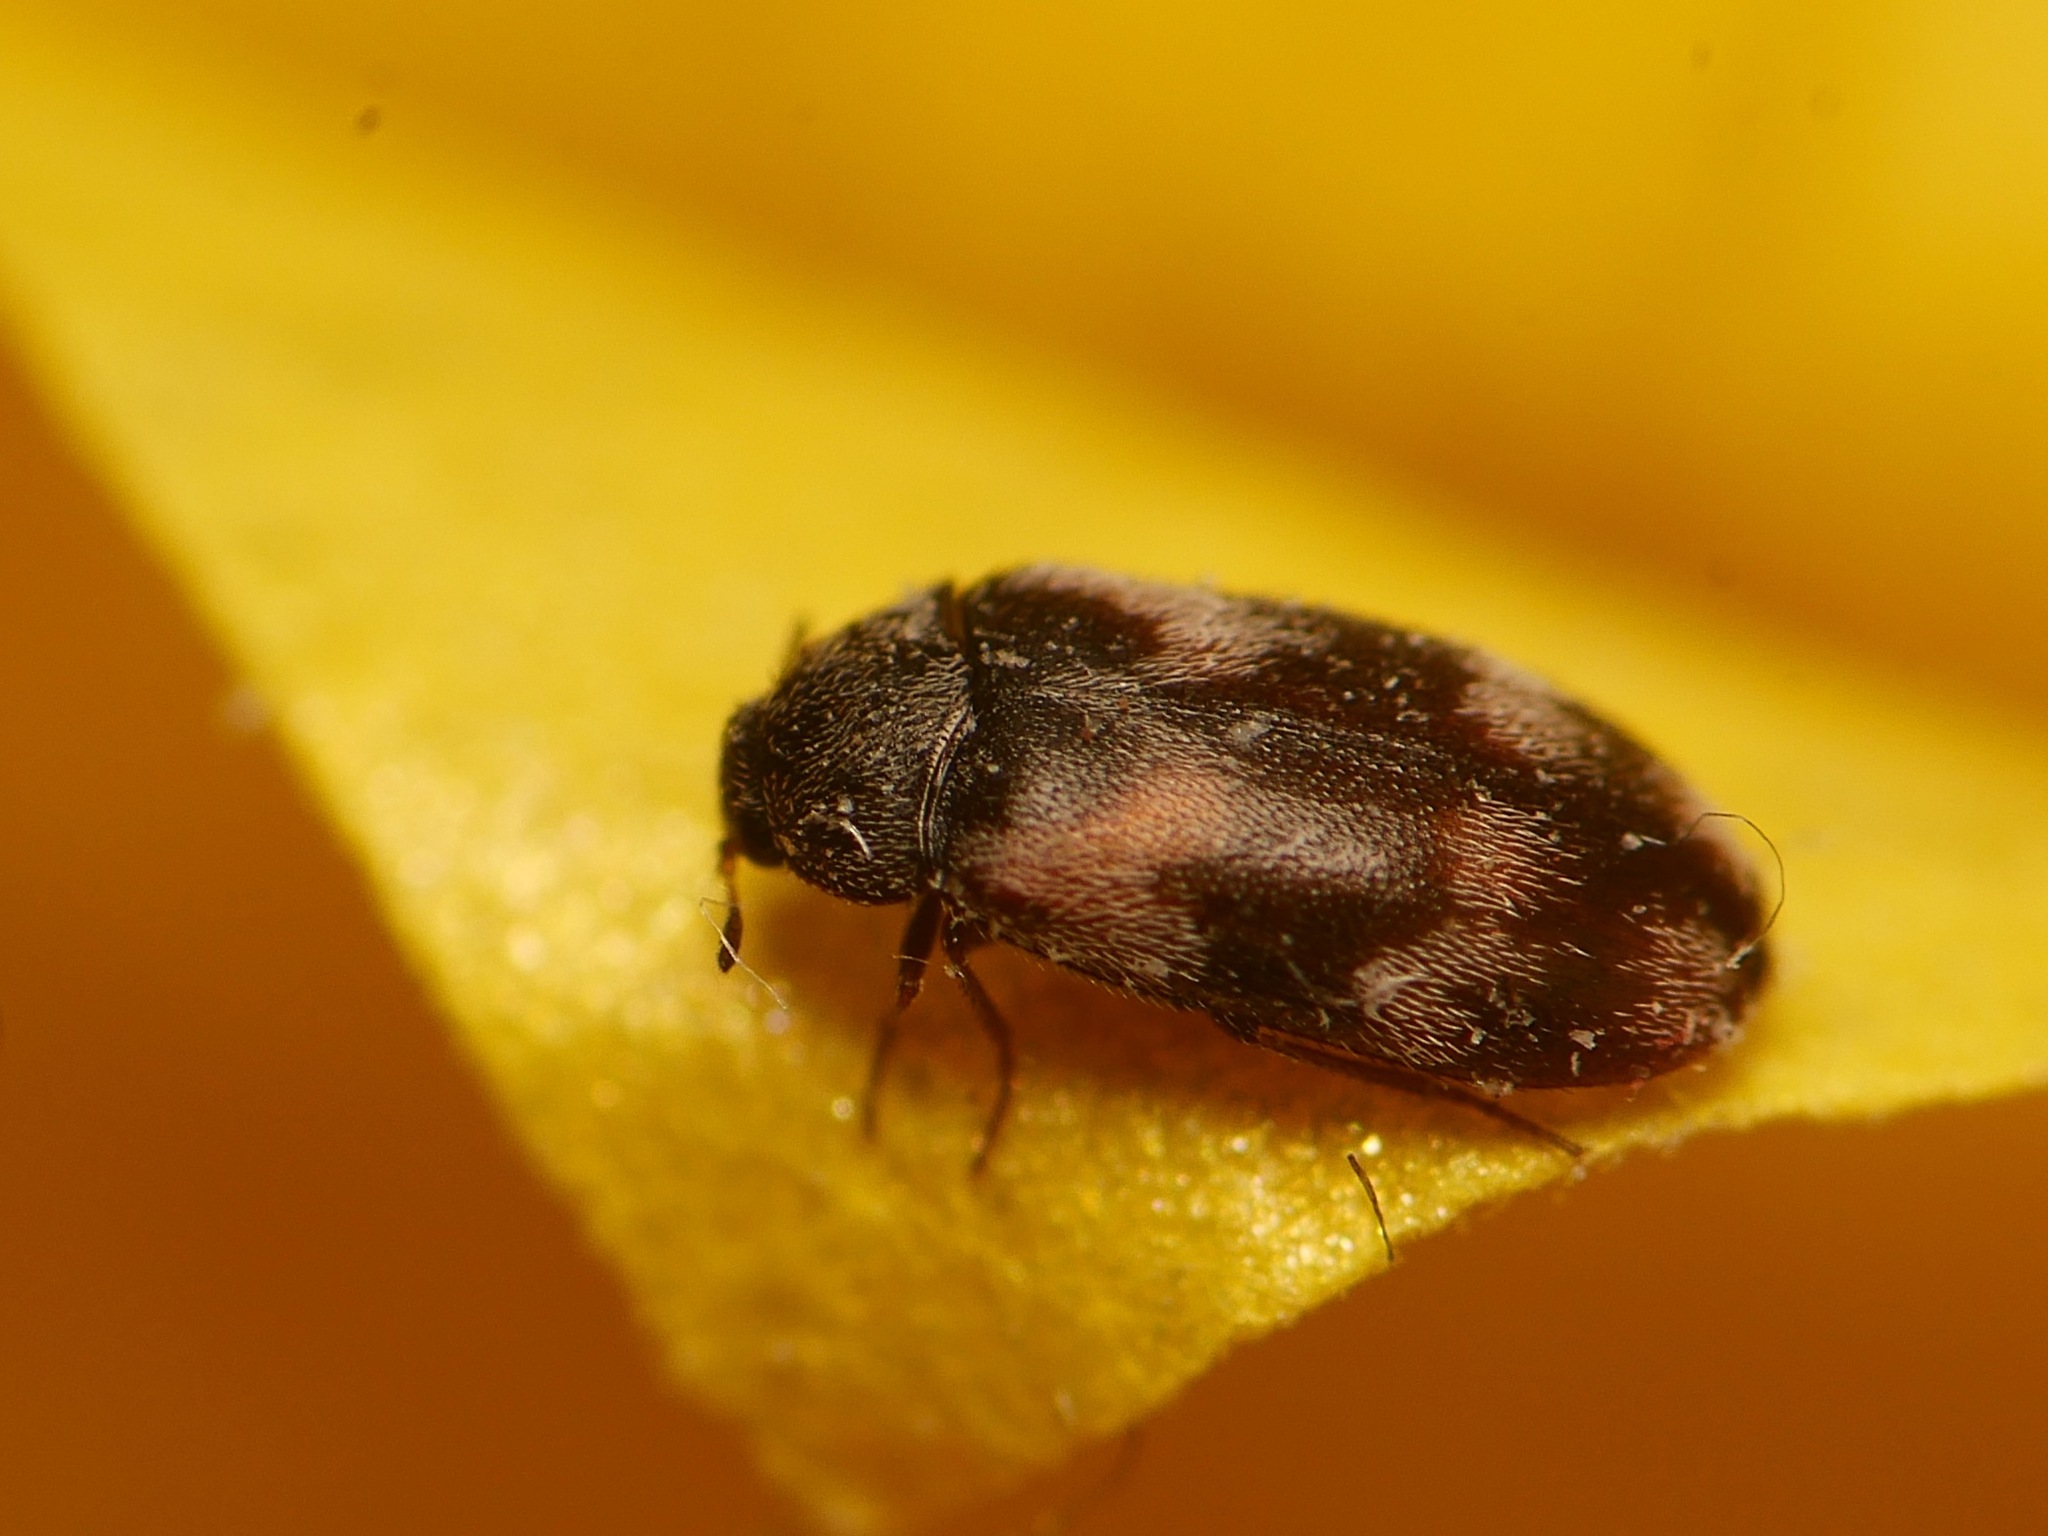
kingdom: Animalia
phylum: Arthropoda
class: Insecta
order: Coleoptera
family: Dermestidae
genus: Trogoderma
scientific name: Trogoderma angustum
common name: Skin beetle
